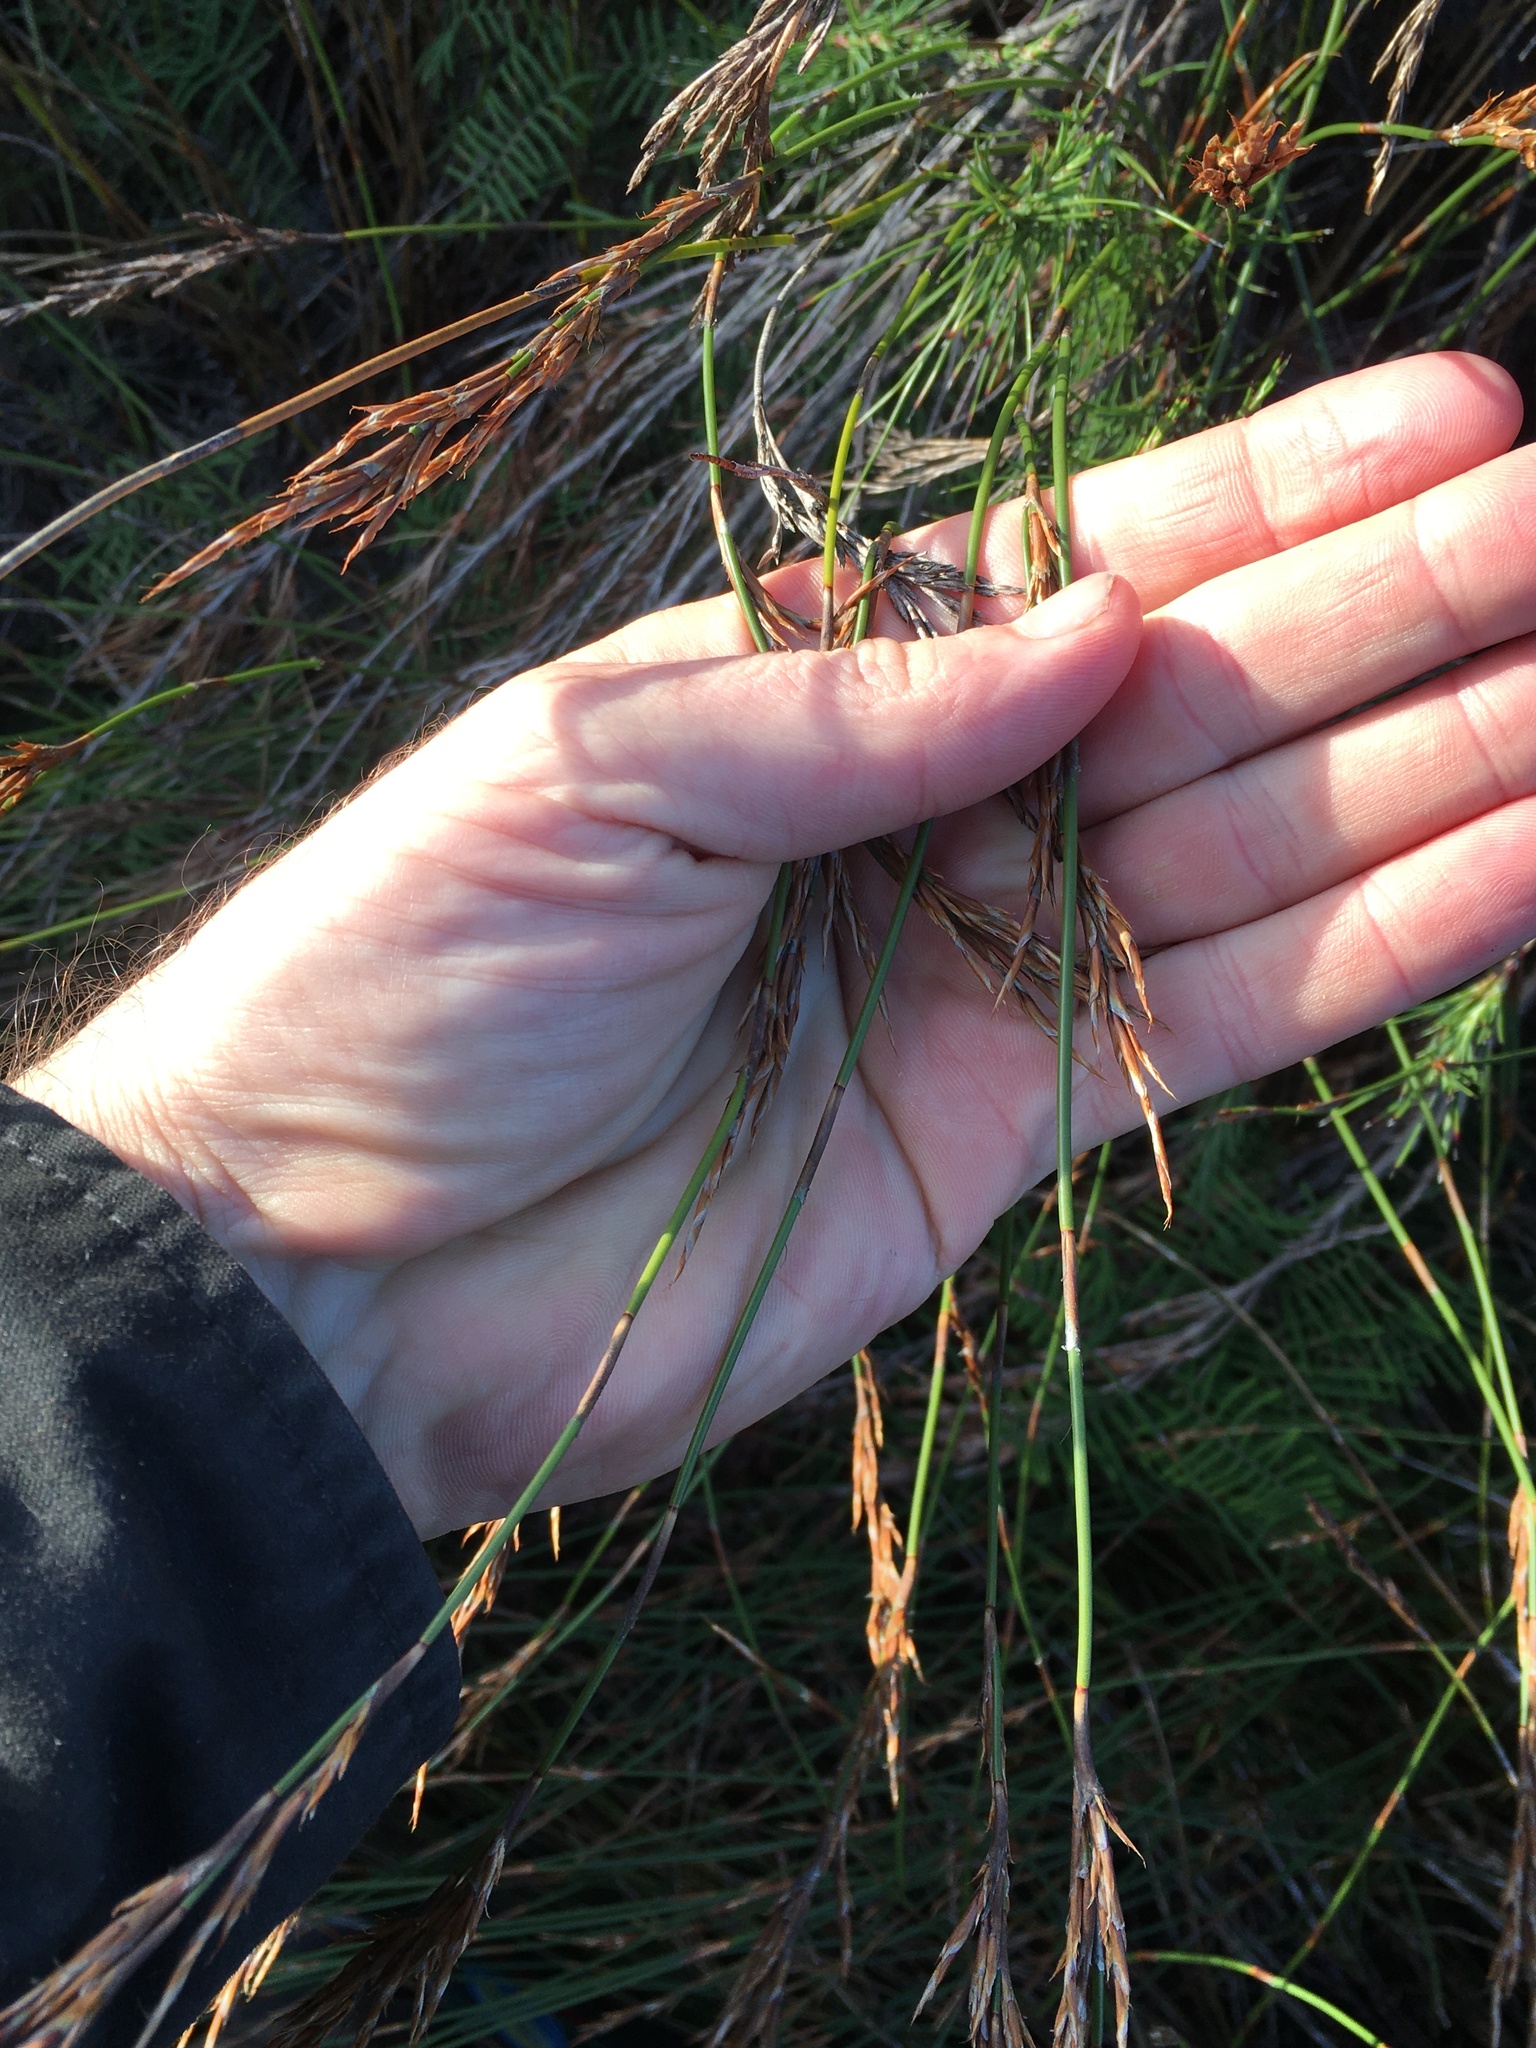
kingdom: Plantae
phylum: Tracheophyta
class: Liliopsida
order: Poales
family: Restionaceae
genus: Sporadanthus
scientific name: Sporadanthus traversii
